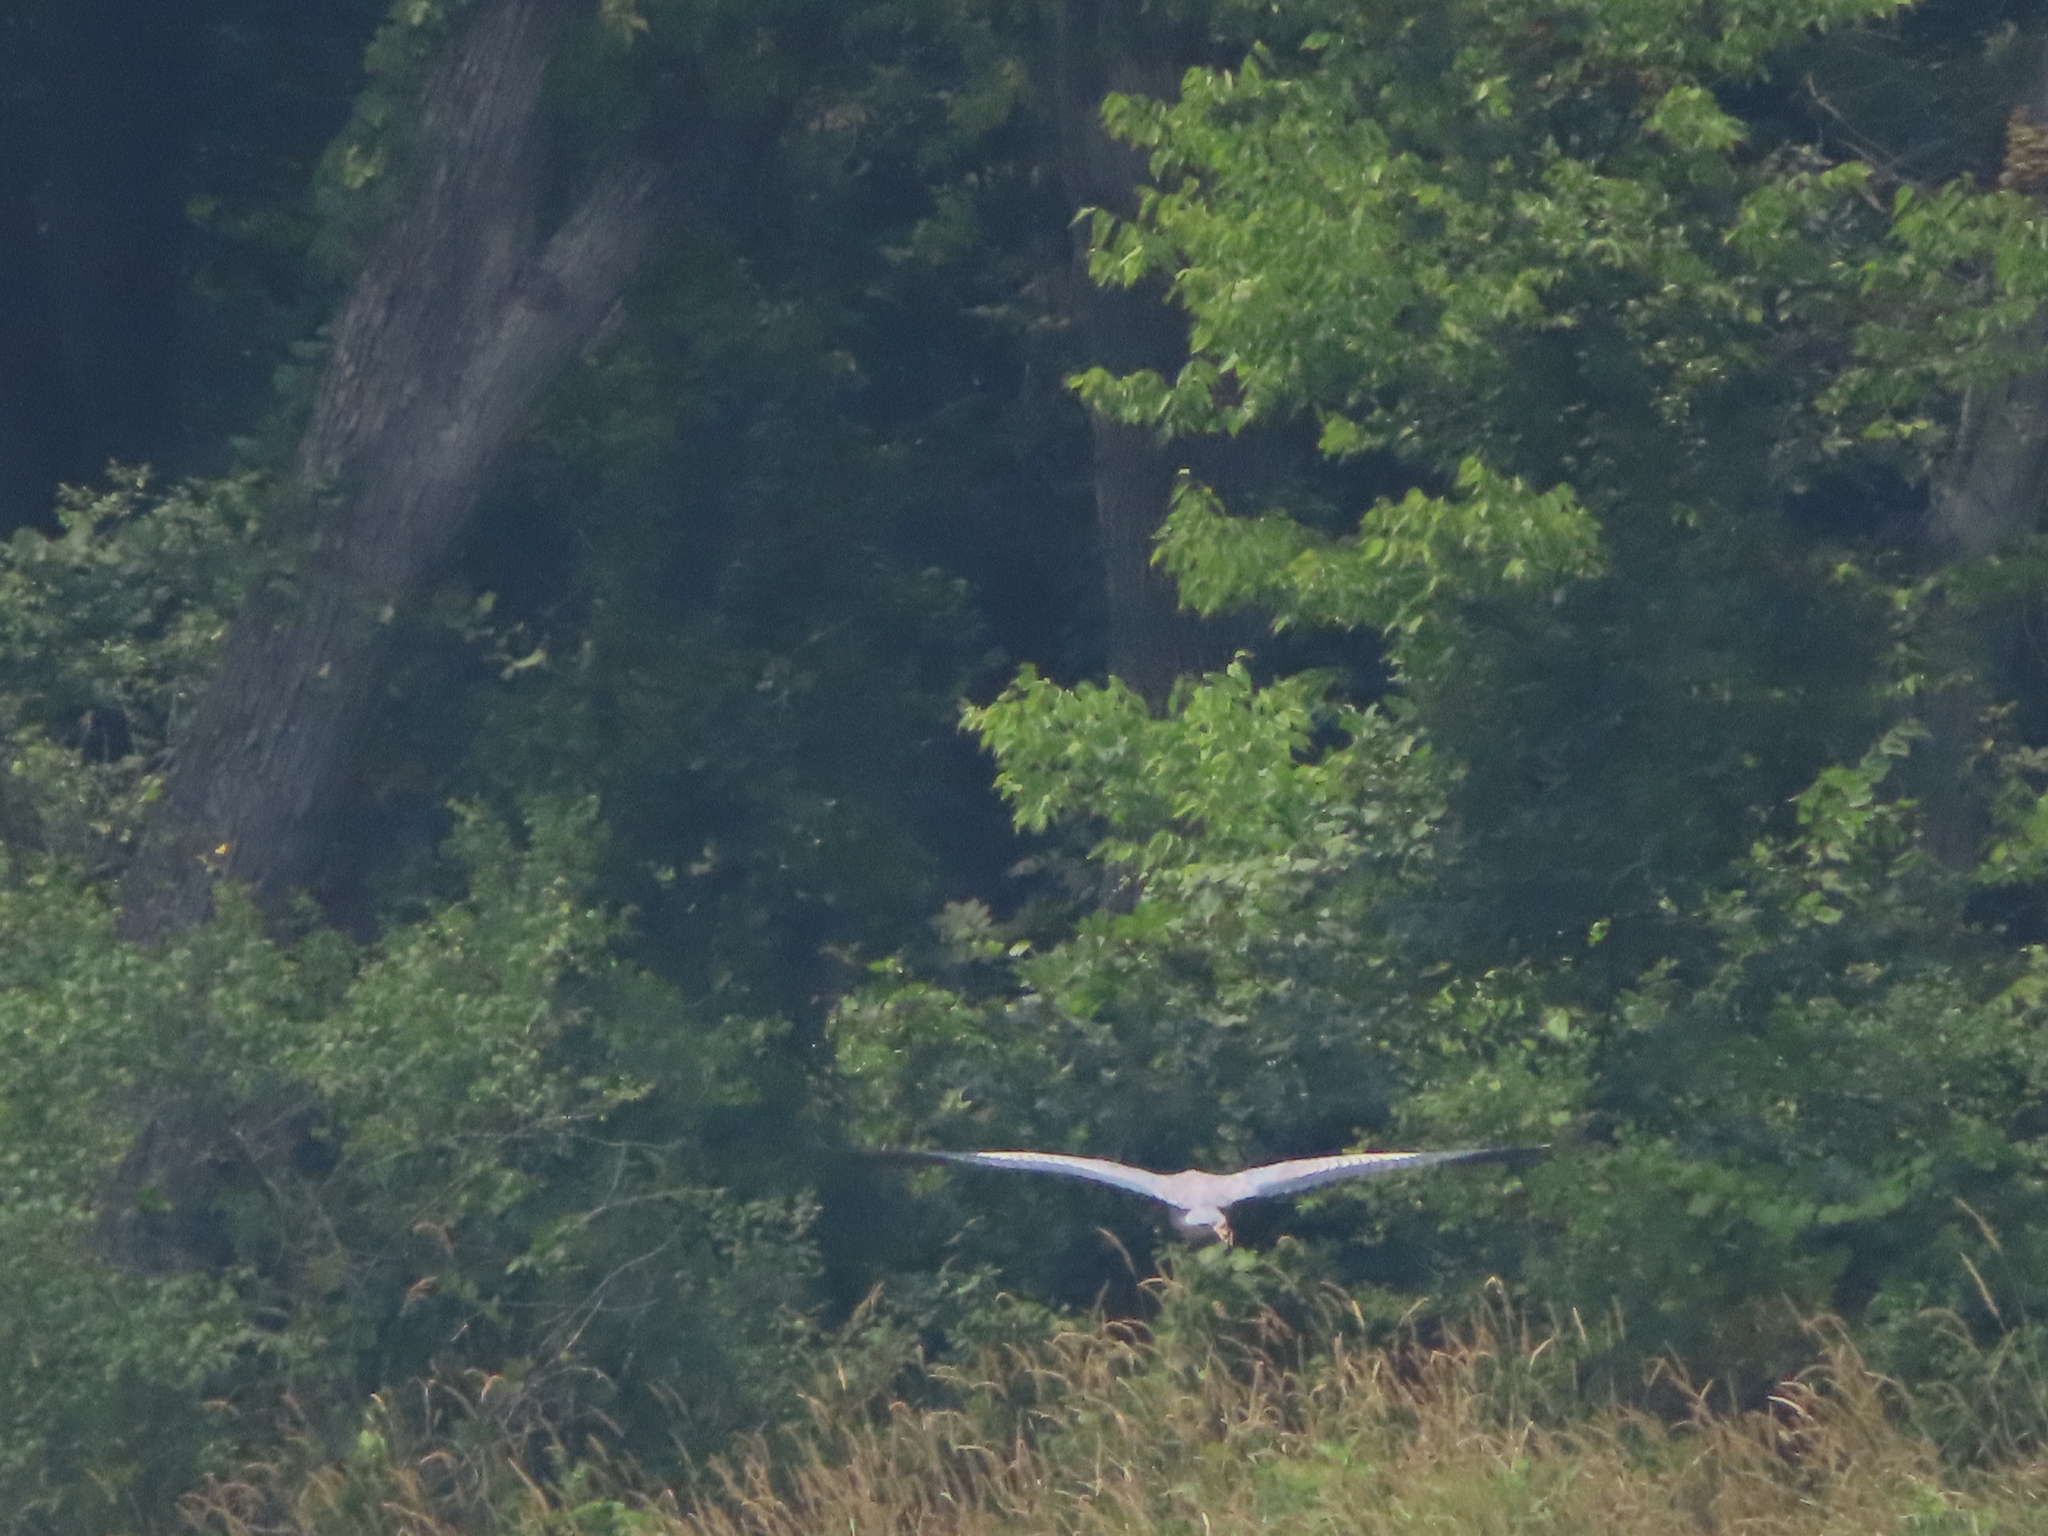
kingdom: Animalia
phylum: Chordata
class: Aves
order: Pelecaniformes
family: Ardeidae
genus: Ardea
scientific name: Ardea herodias
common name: Great blue heron
